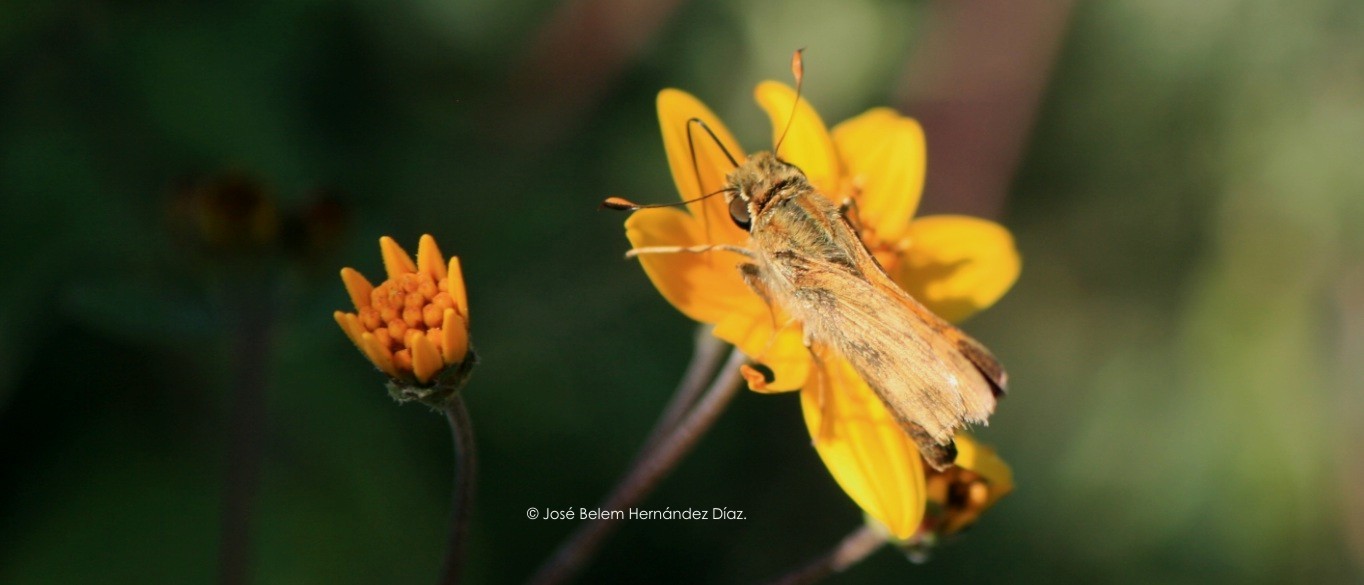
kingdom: Animalia
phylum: Arthropoda
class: Insecta
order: Lepidoptera
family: Hesperiidae
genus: Atalopedes
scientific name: Atalopedes
